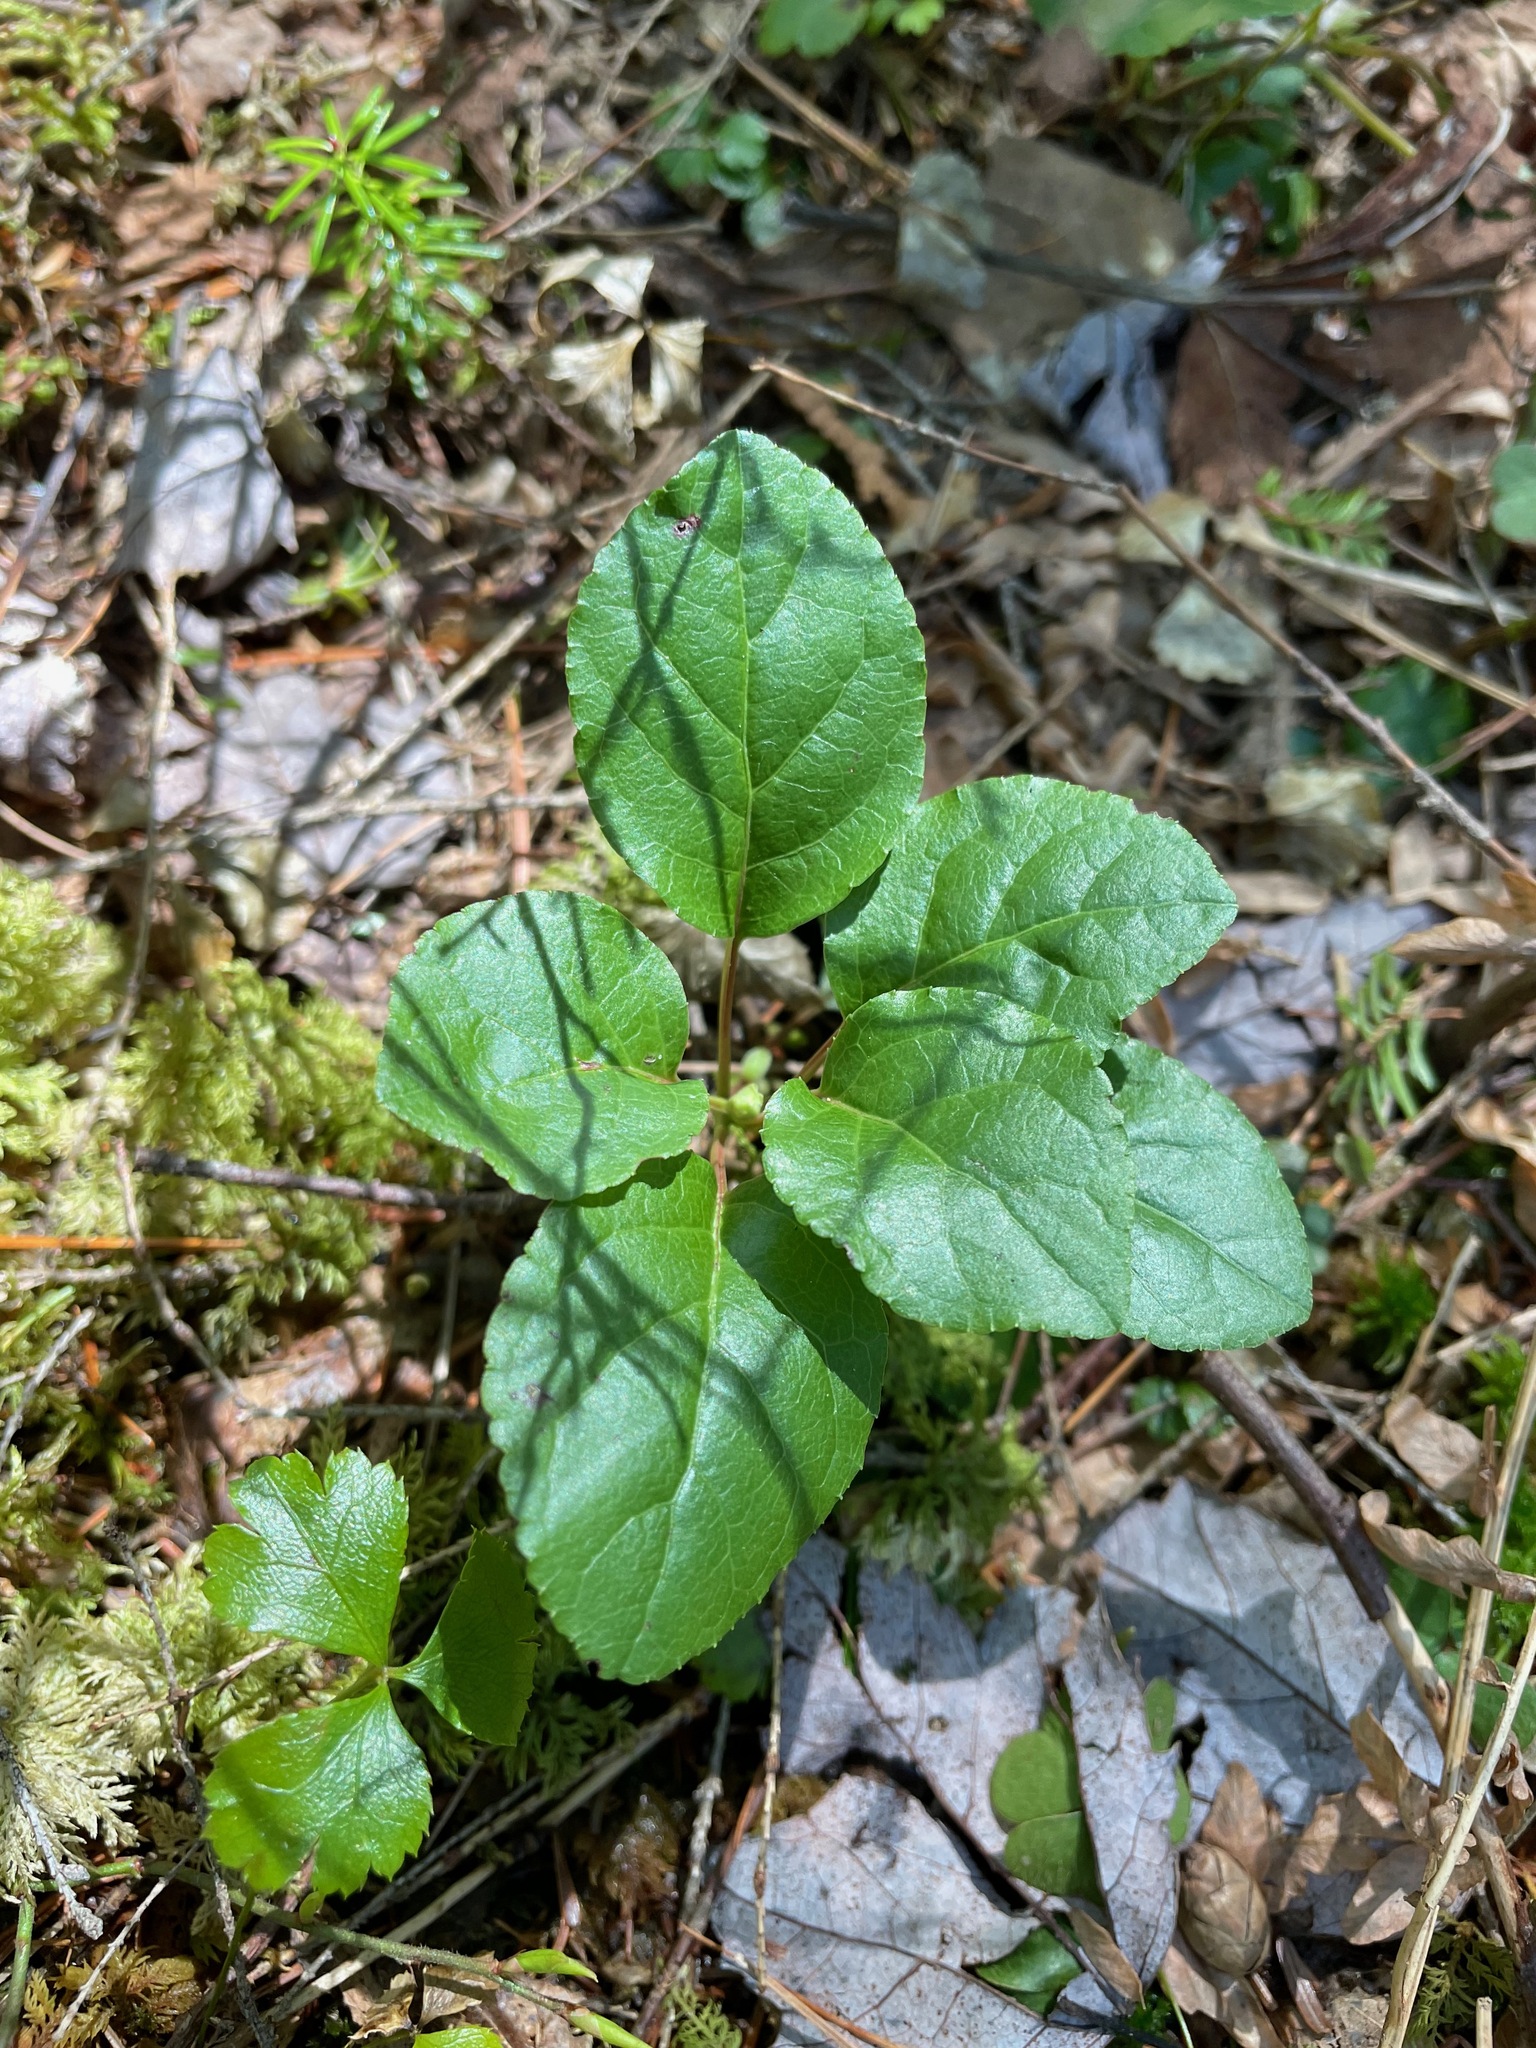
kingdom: Plantae
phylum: Tracheophyta
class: Magnoliopsida
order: Ericales
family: Ericaceae
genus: Orthilia
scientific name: Orthilia secunda
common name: One-sided orthilia
